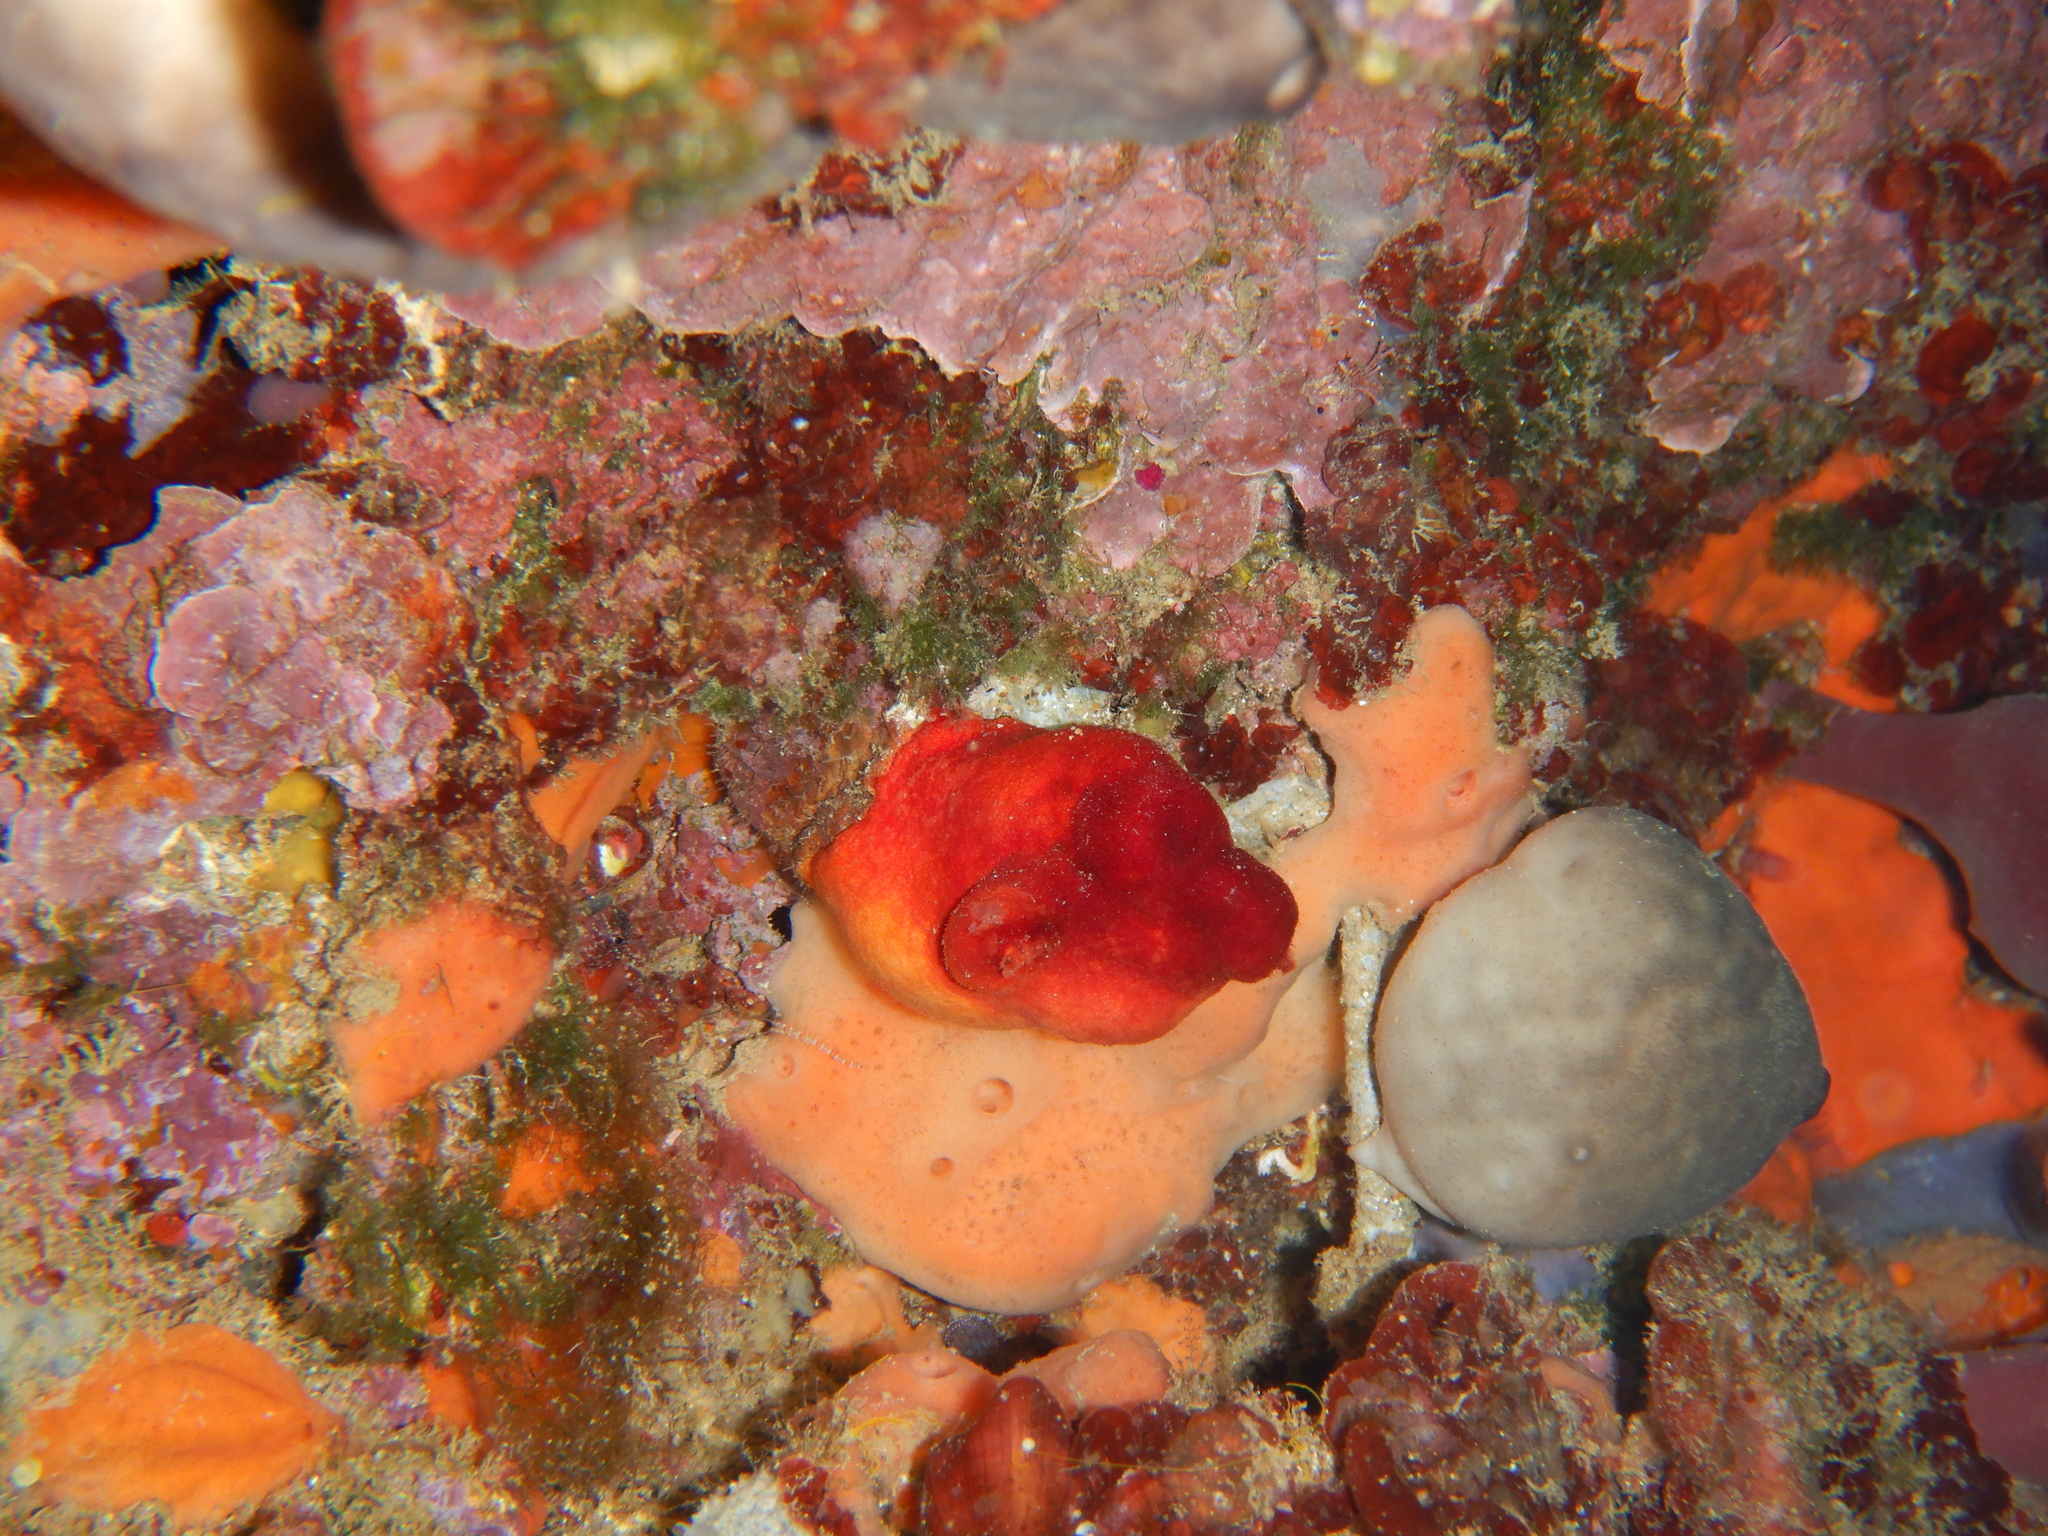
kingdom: Animalia
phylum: Chordata
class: Ascidiacea
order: Stolidobranchia
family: Pyuridae
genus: Halocynthia
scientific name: Halocynthia papillosa
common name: Red sea-squirt
